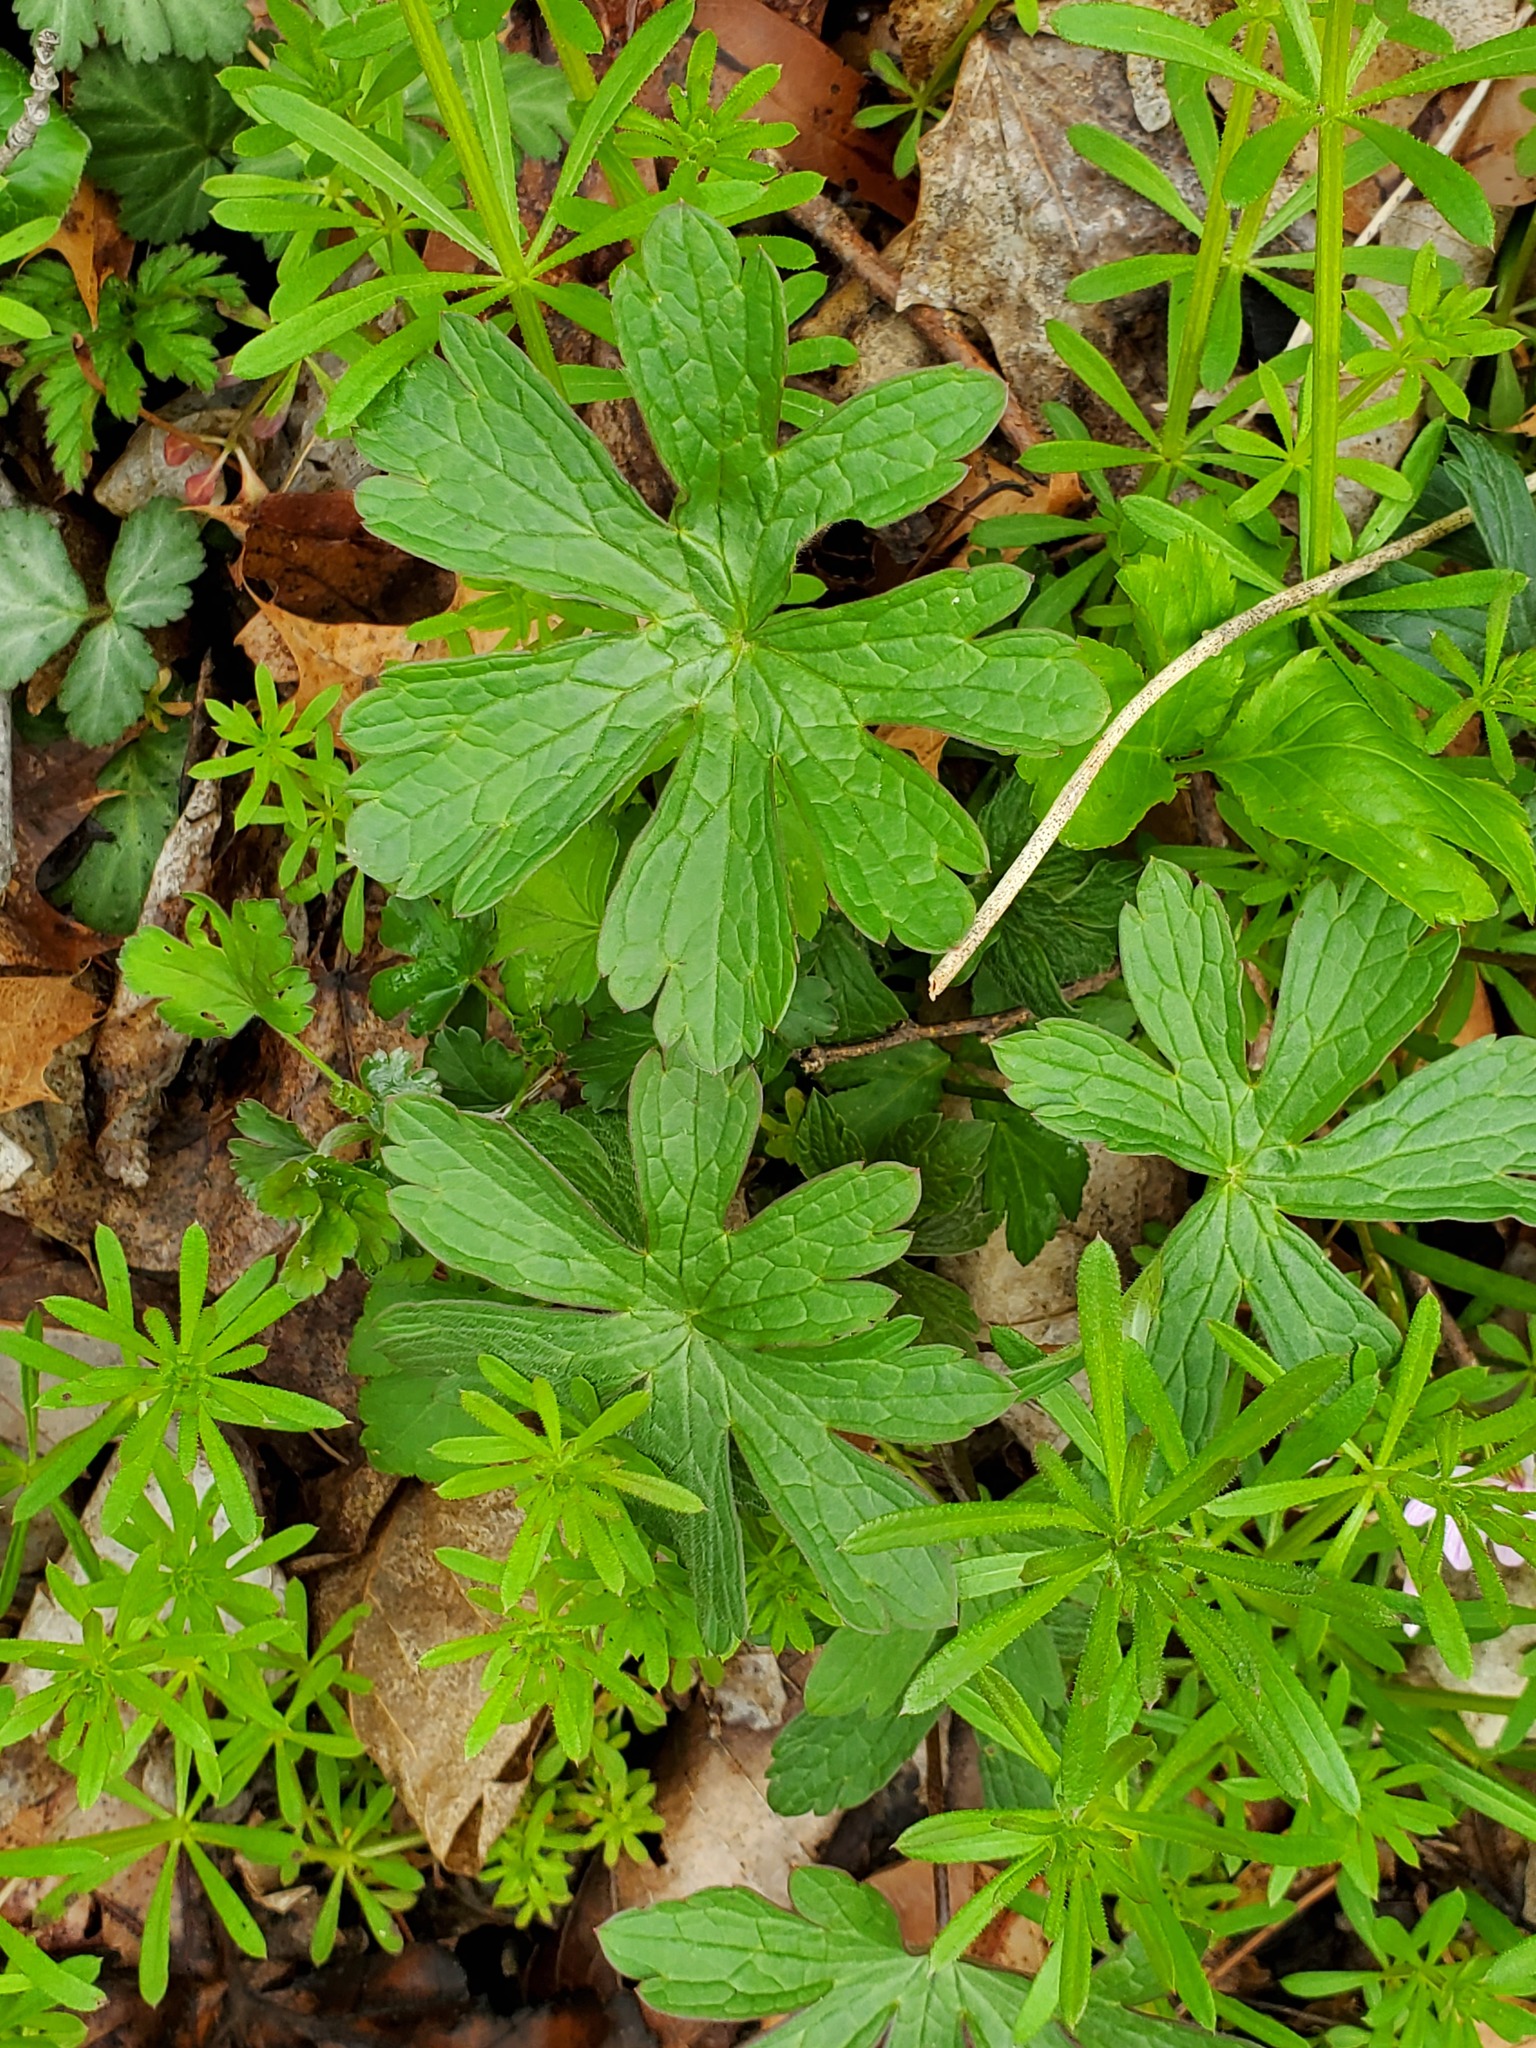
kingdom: Plantae
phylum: Tracheophyta
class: Magnoliopsida
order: Geraniales
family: Geraniaceae
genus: Geranium
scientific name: Geranium maculatum
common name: Spotted geranium
